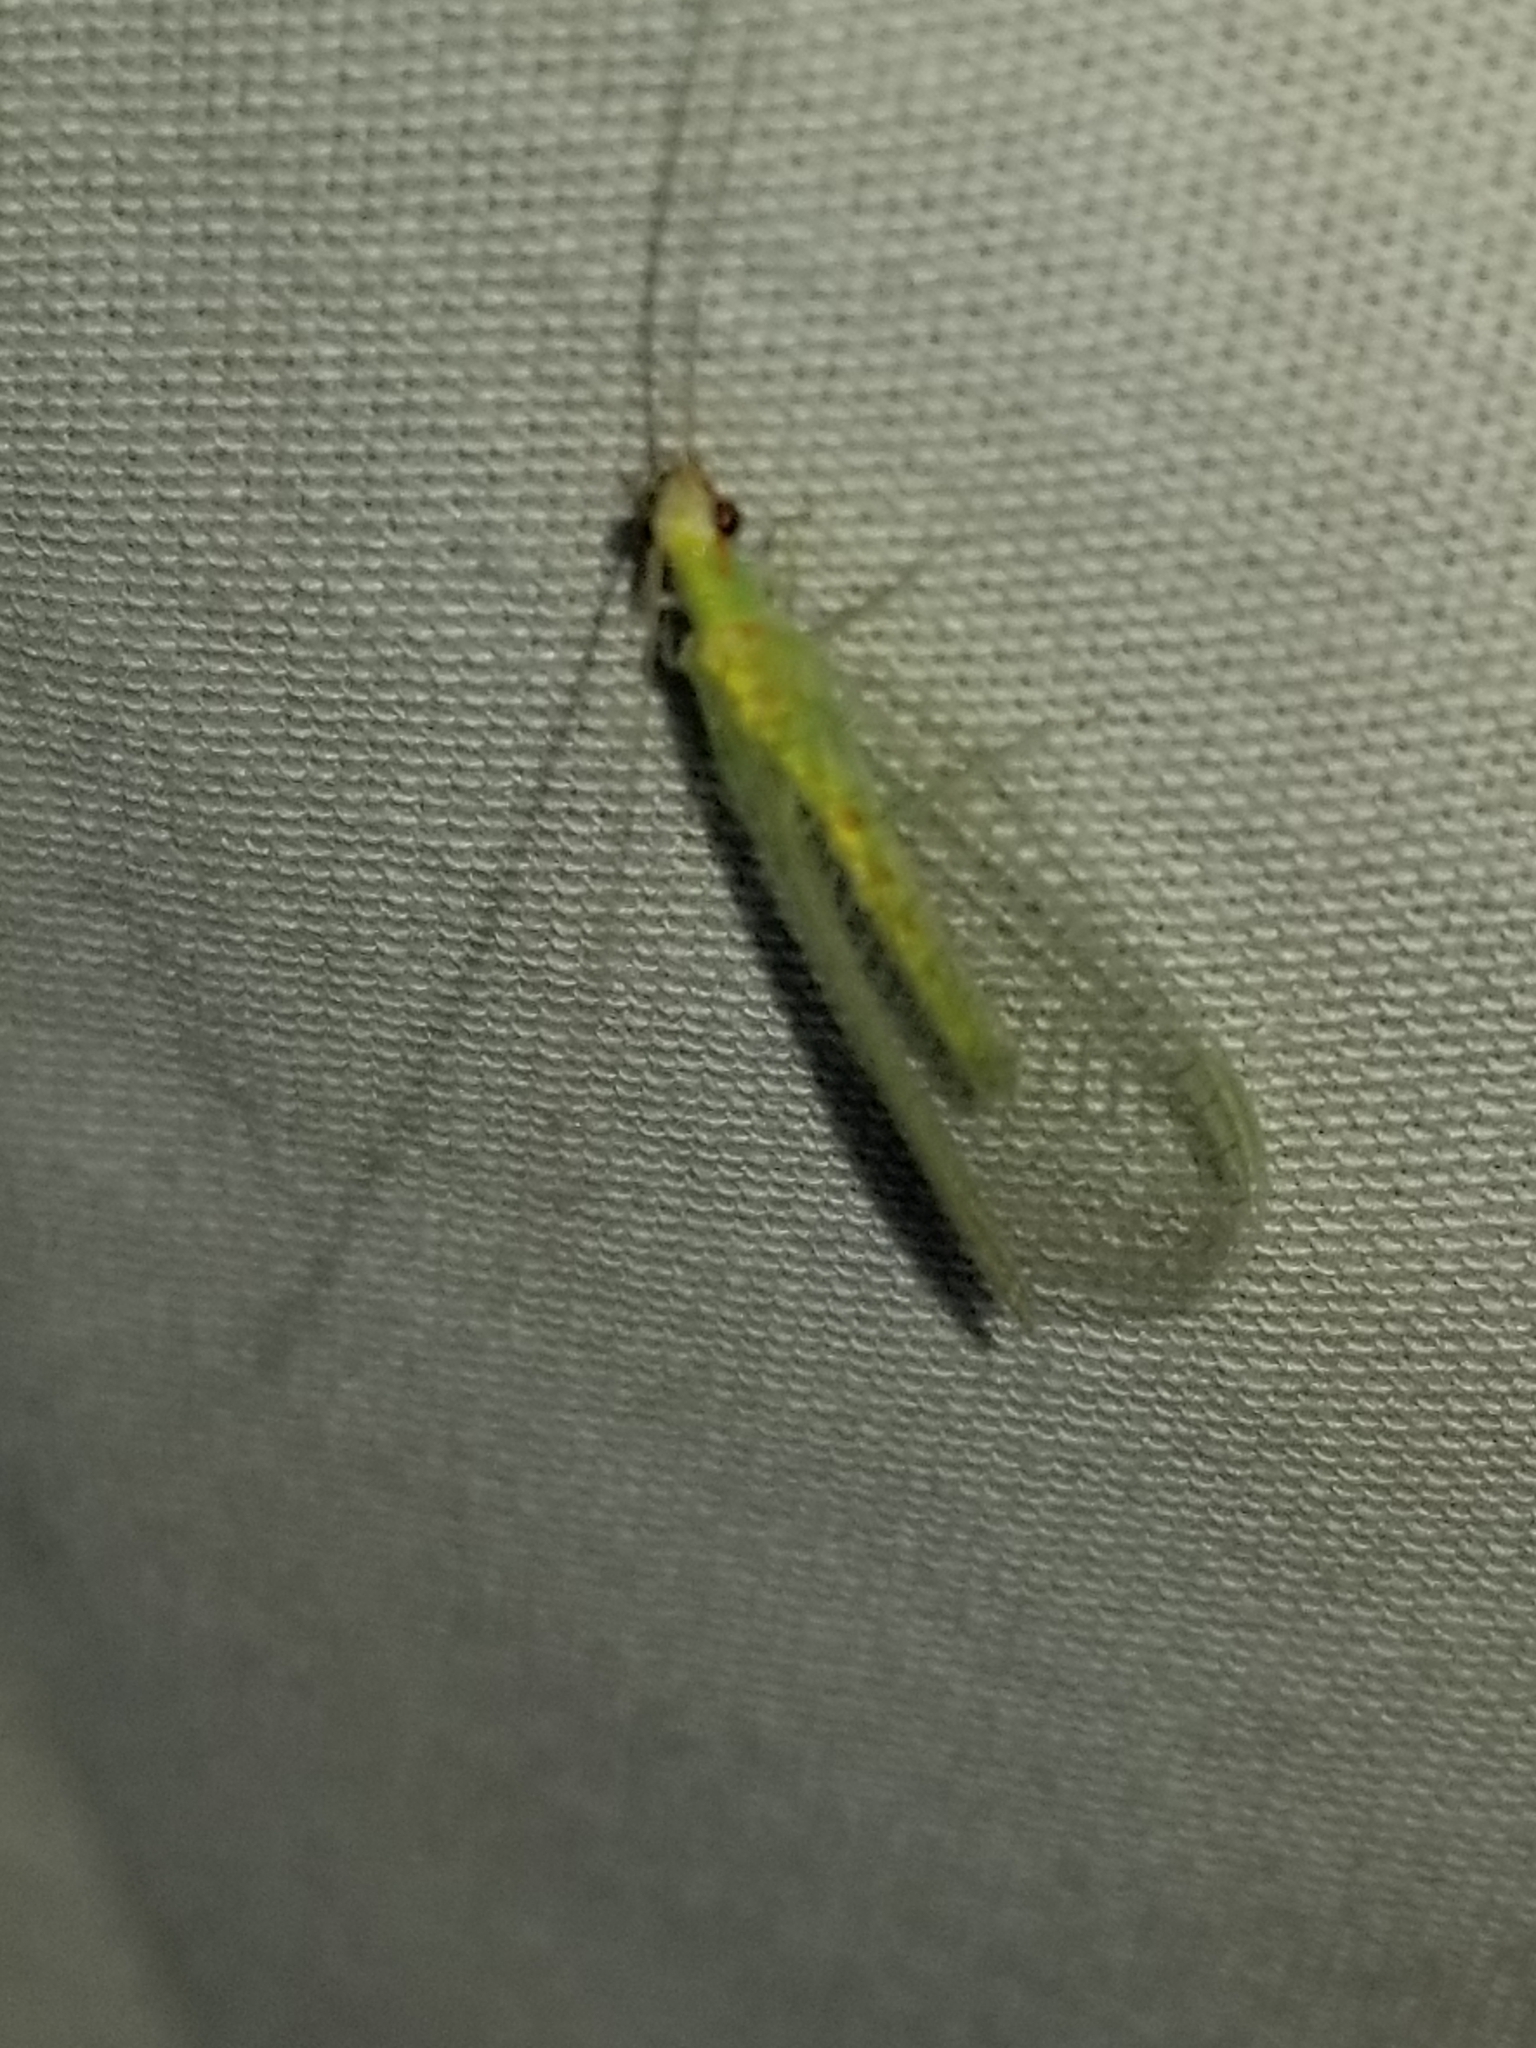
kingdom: Animalia
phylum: Arthropoda
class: Insecta
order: Neuroptera
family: Chrysopidae
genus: Chrysopa
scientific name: Chrysopa quadripunctata
